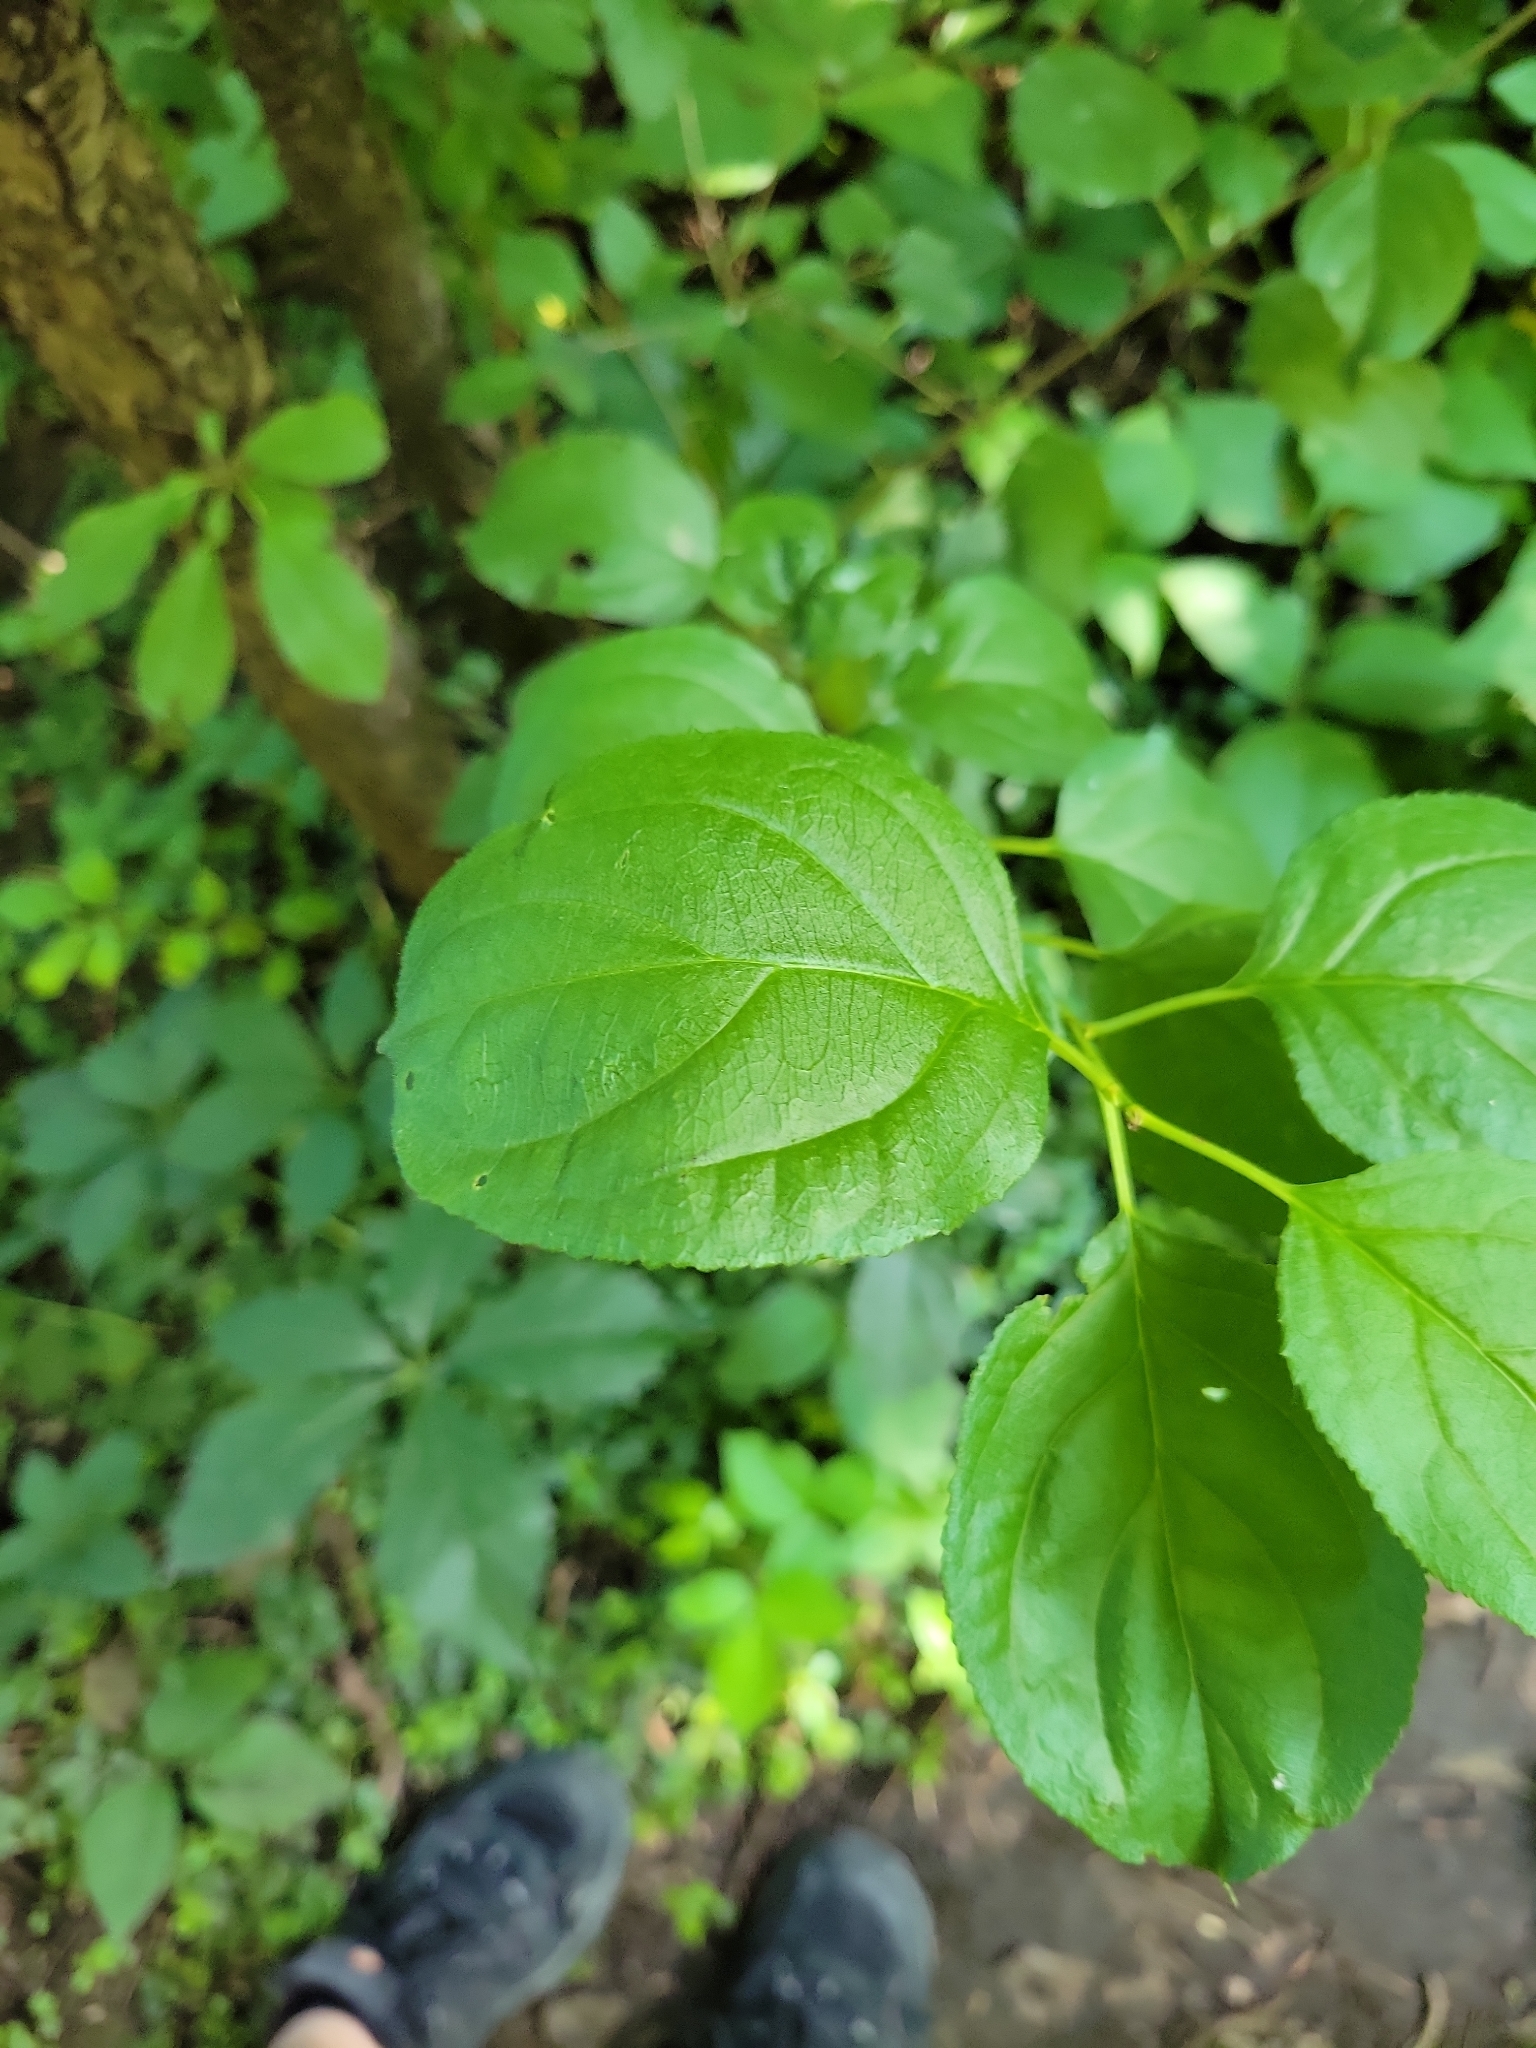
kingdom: Plantae
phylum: Tracheophyta
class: Magnoliopsida
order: Rosales
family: Rhamnaceae
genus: Rhamnus
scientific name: Rhamnus cathartica
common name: Common buckthorn
